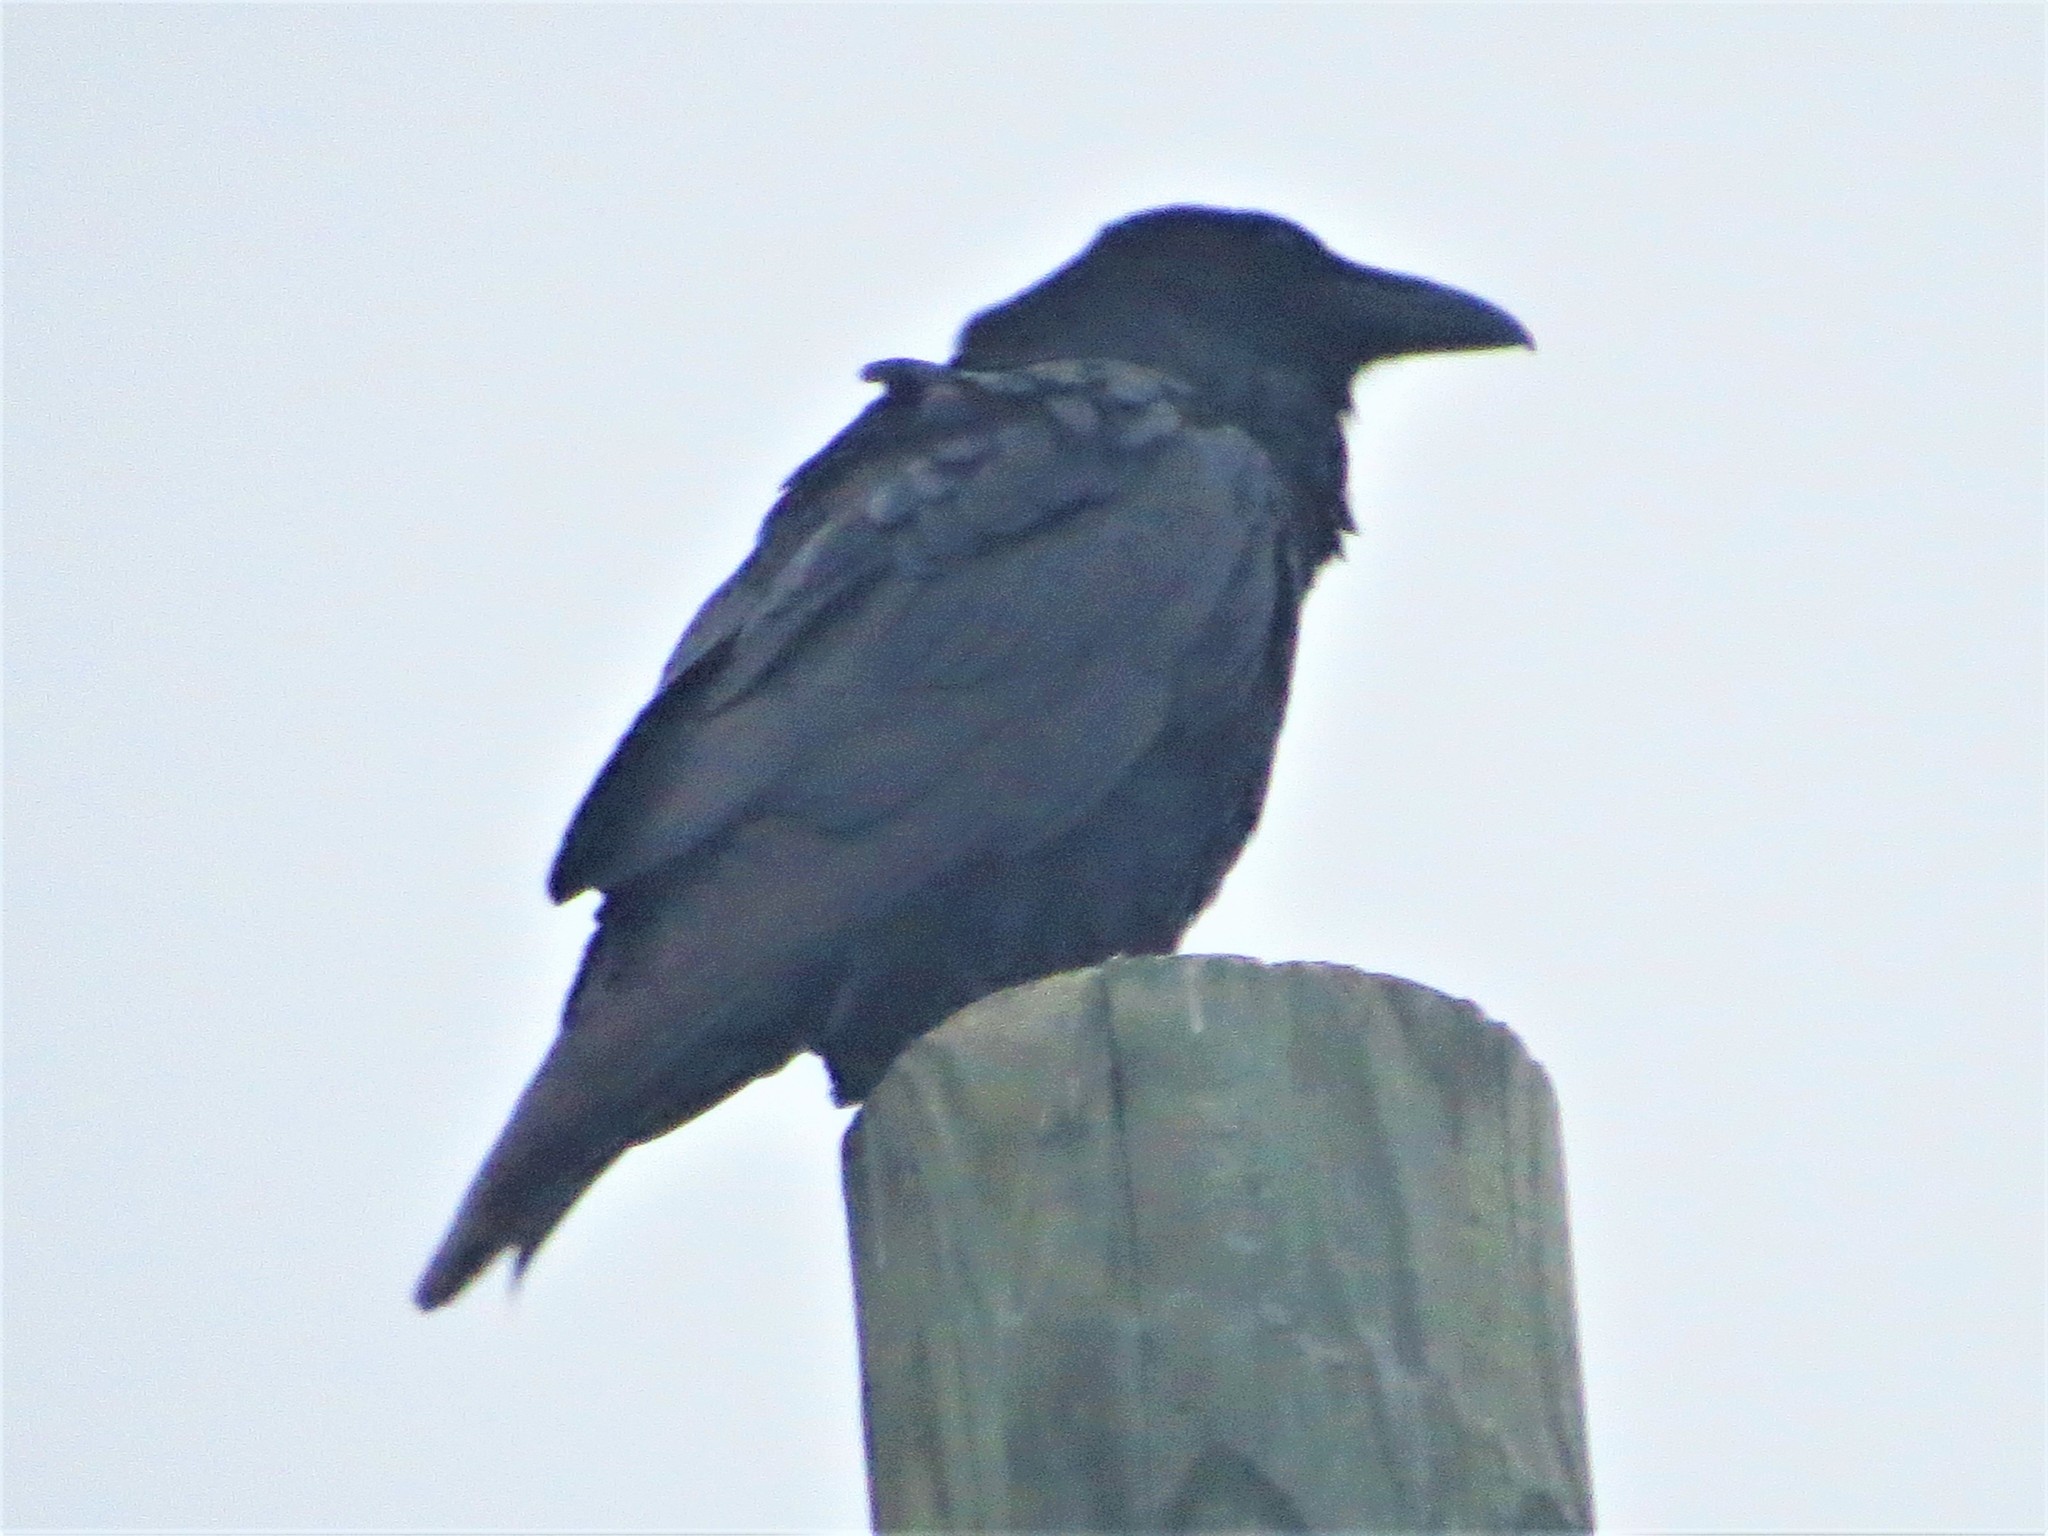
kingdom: Animalia
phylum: Chordata
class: Aves
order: Passeriformes
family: Corvidae
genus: Corvus
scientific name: Corvus corax
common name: Common raven
